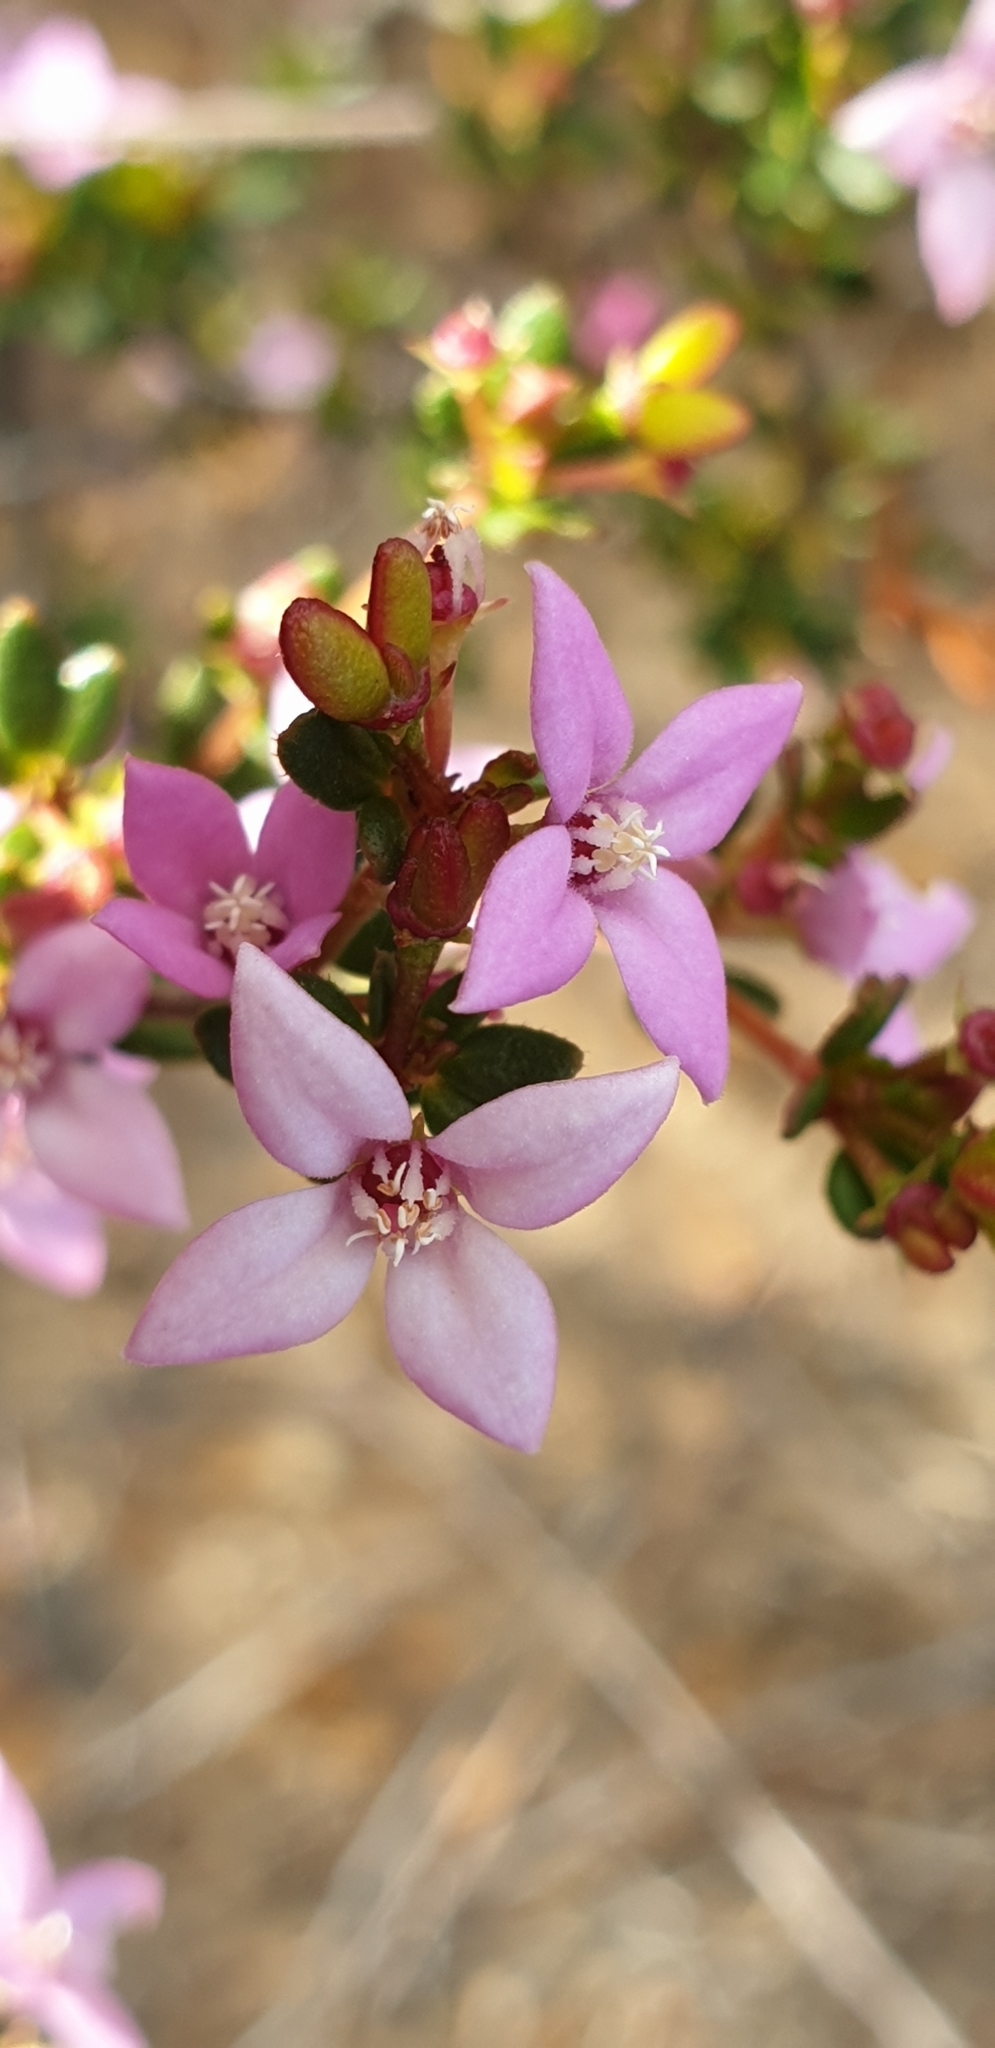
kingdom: Plantae
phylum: Tracheophyta
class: Magnoliopsida
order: Sapindales
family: Rutaceae
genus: Boronia
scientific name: Boronia edwardsii
